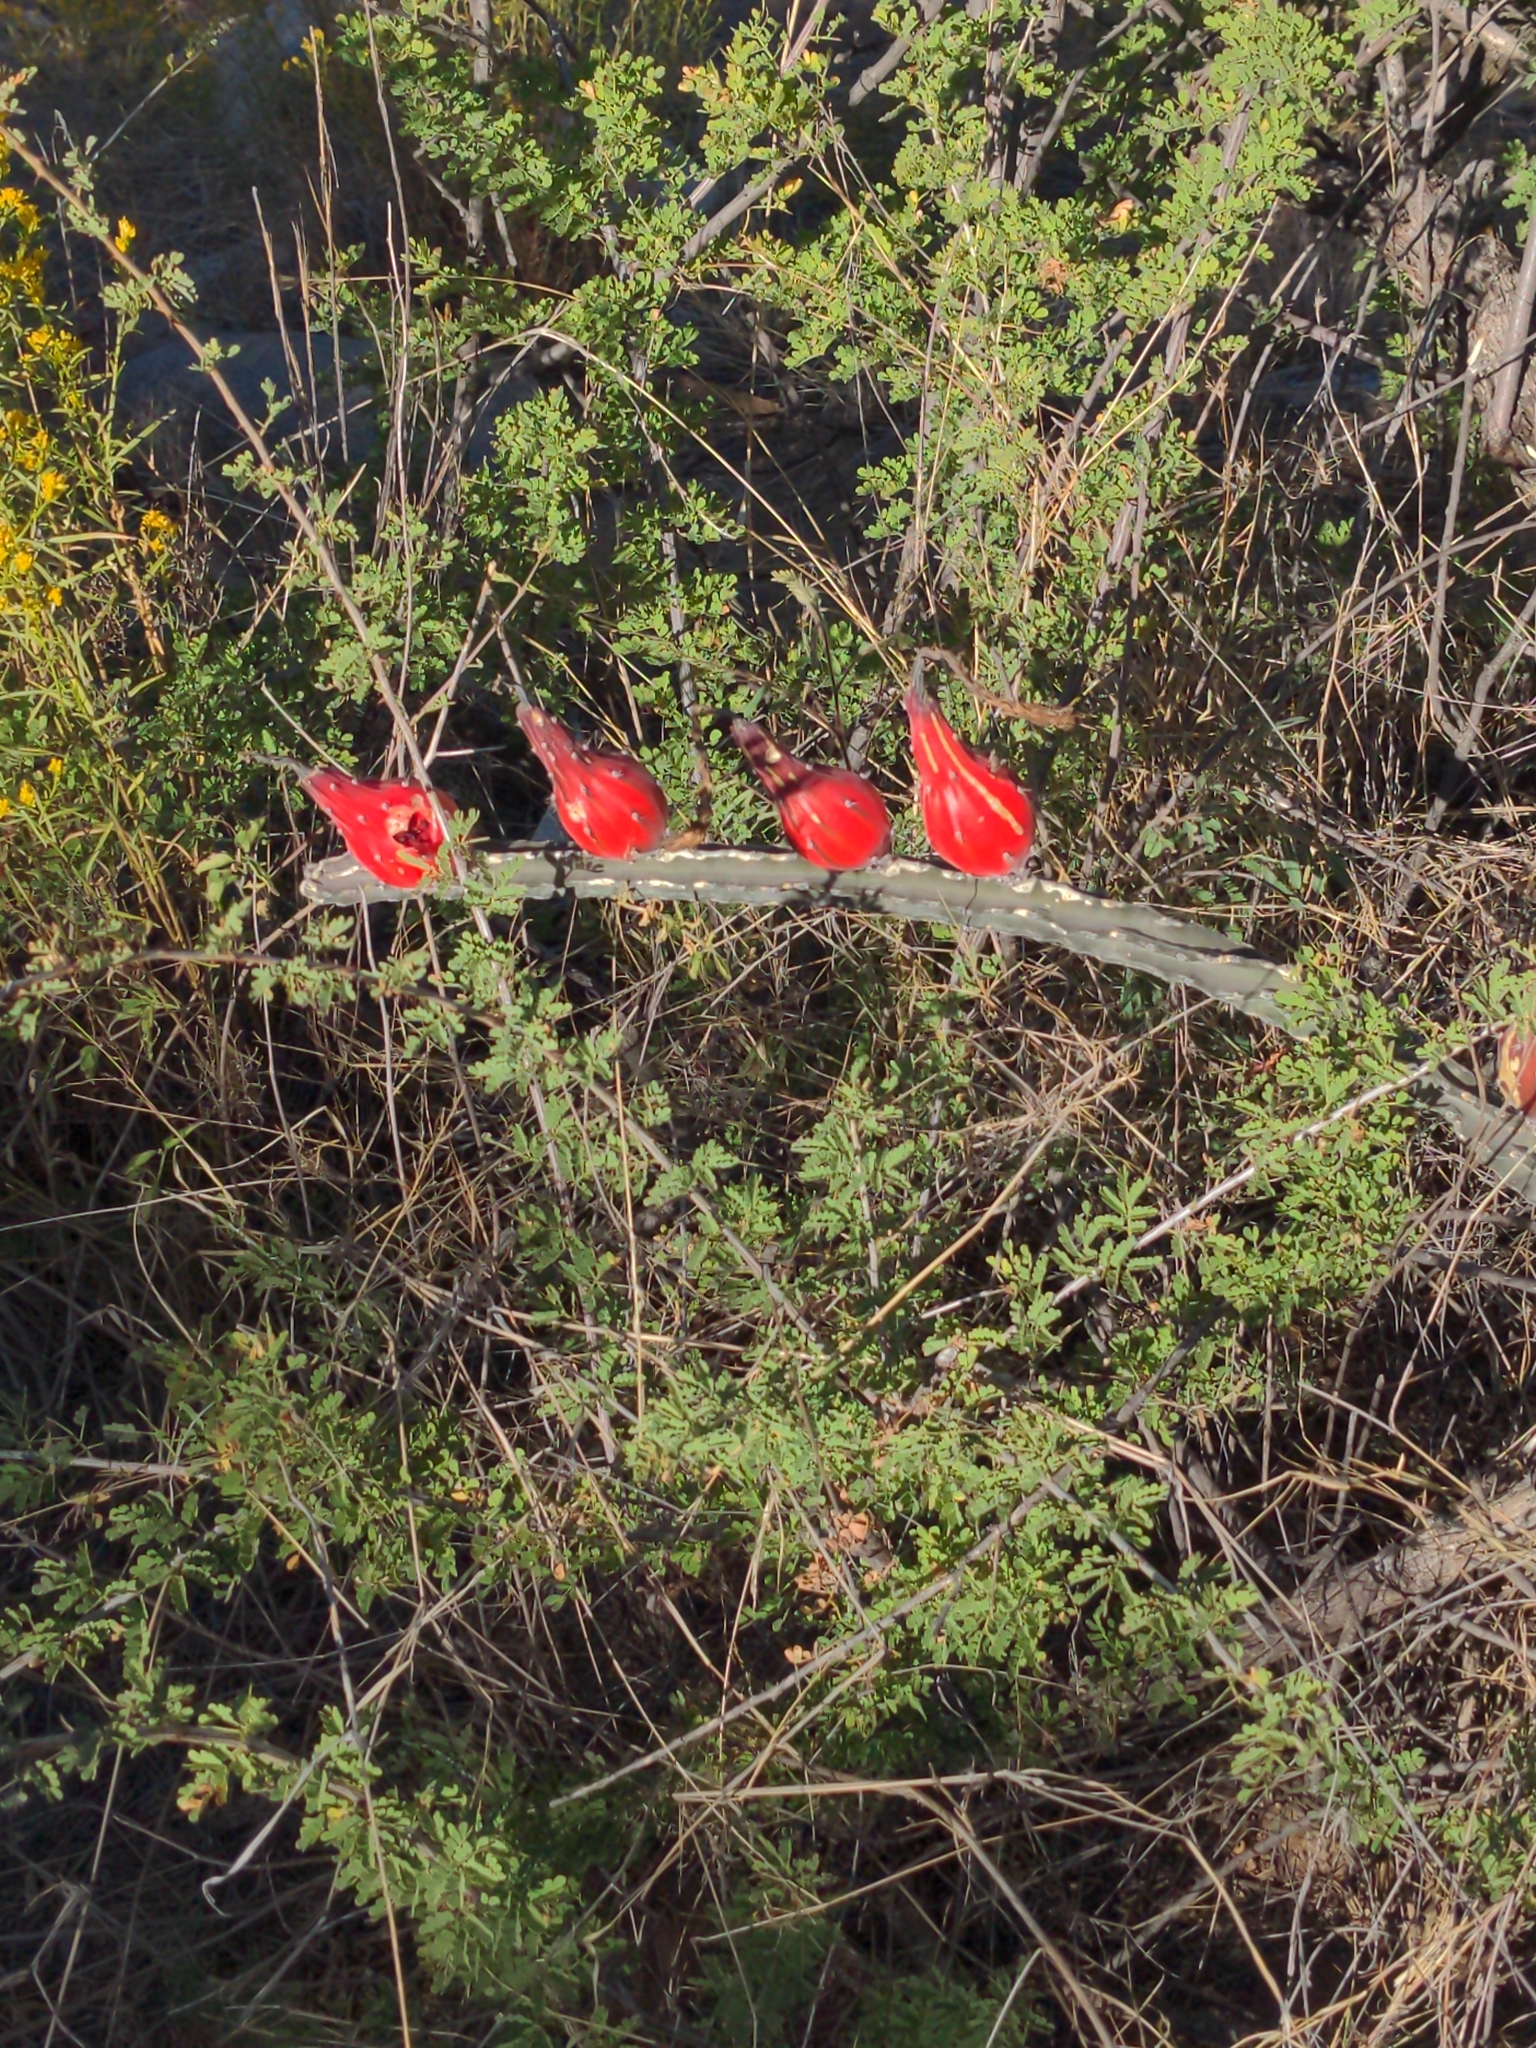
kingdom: Plantae
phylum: Tracheophyta
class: Magnoliopsida
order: Caryophyllales
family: Cactaceae
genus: Peniocereus
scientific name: Peniocereus greggii
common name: Desert night-blooming cereus
